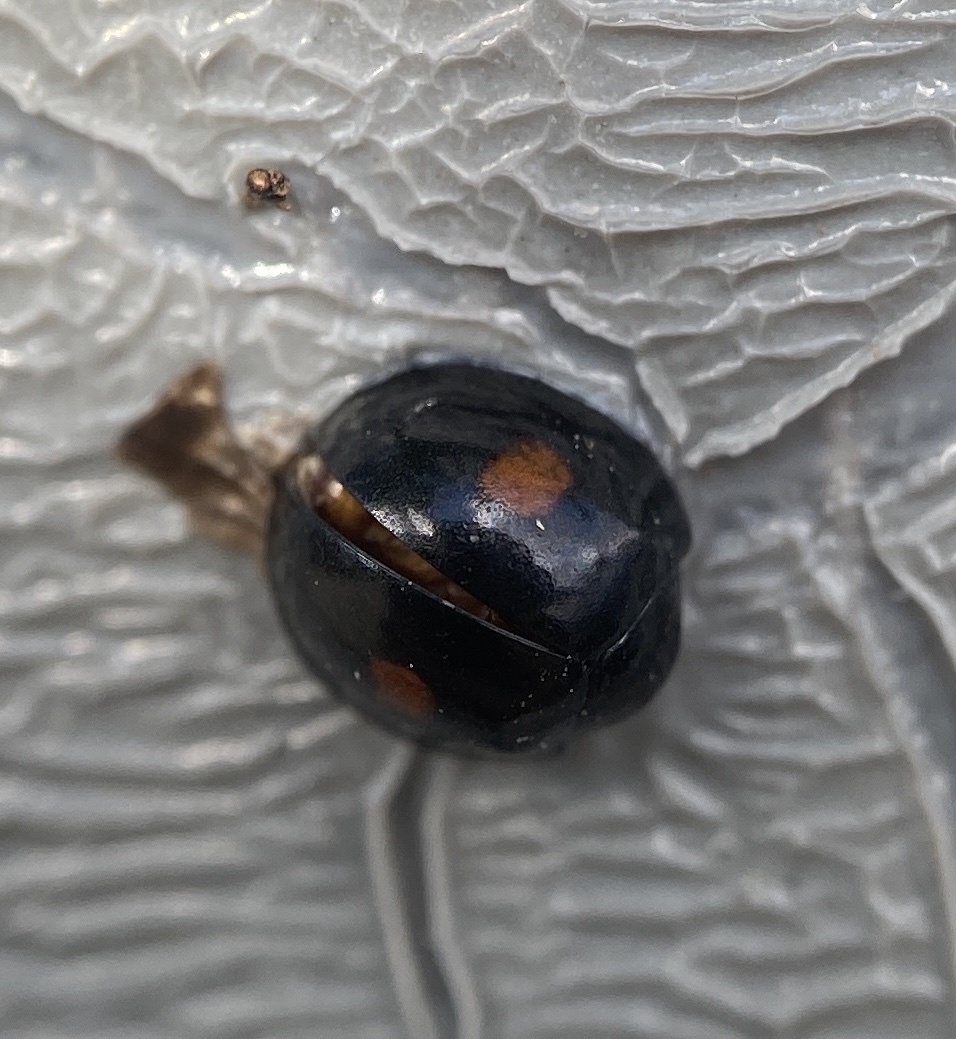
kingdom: Animalia
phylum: Arthropoda
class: Insecta
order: Coleoptera
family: Coccinellidae
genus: Chilocorus
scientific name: Chilocorus stigma
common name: Twicestabbed lady beetle
